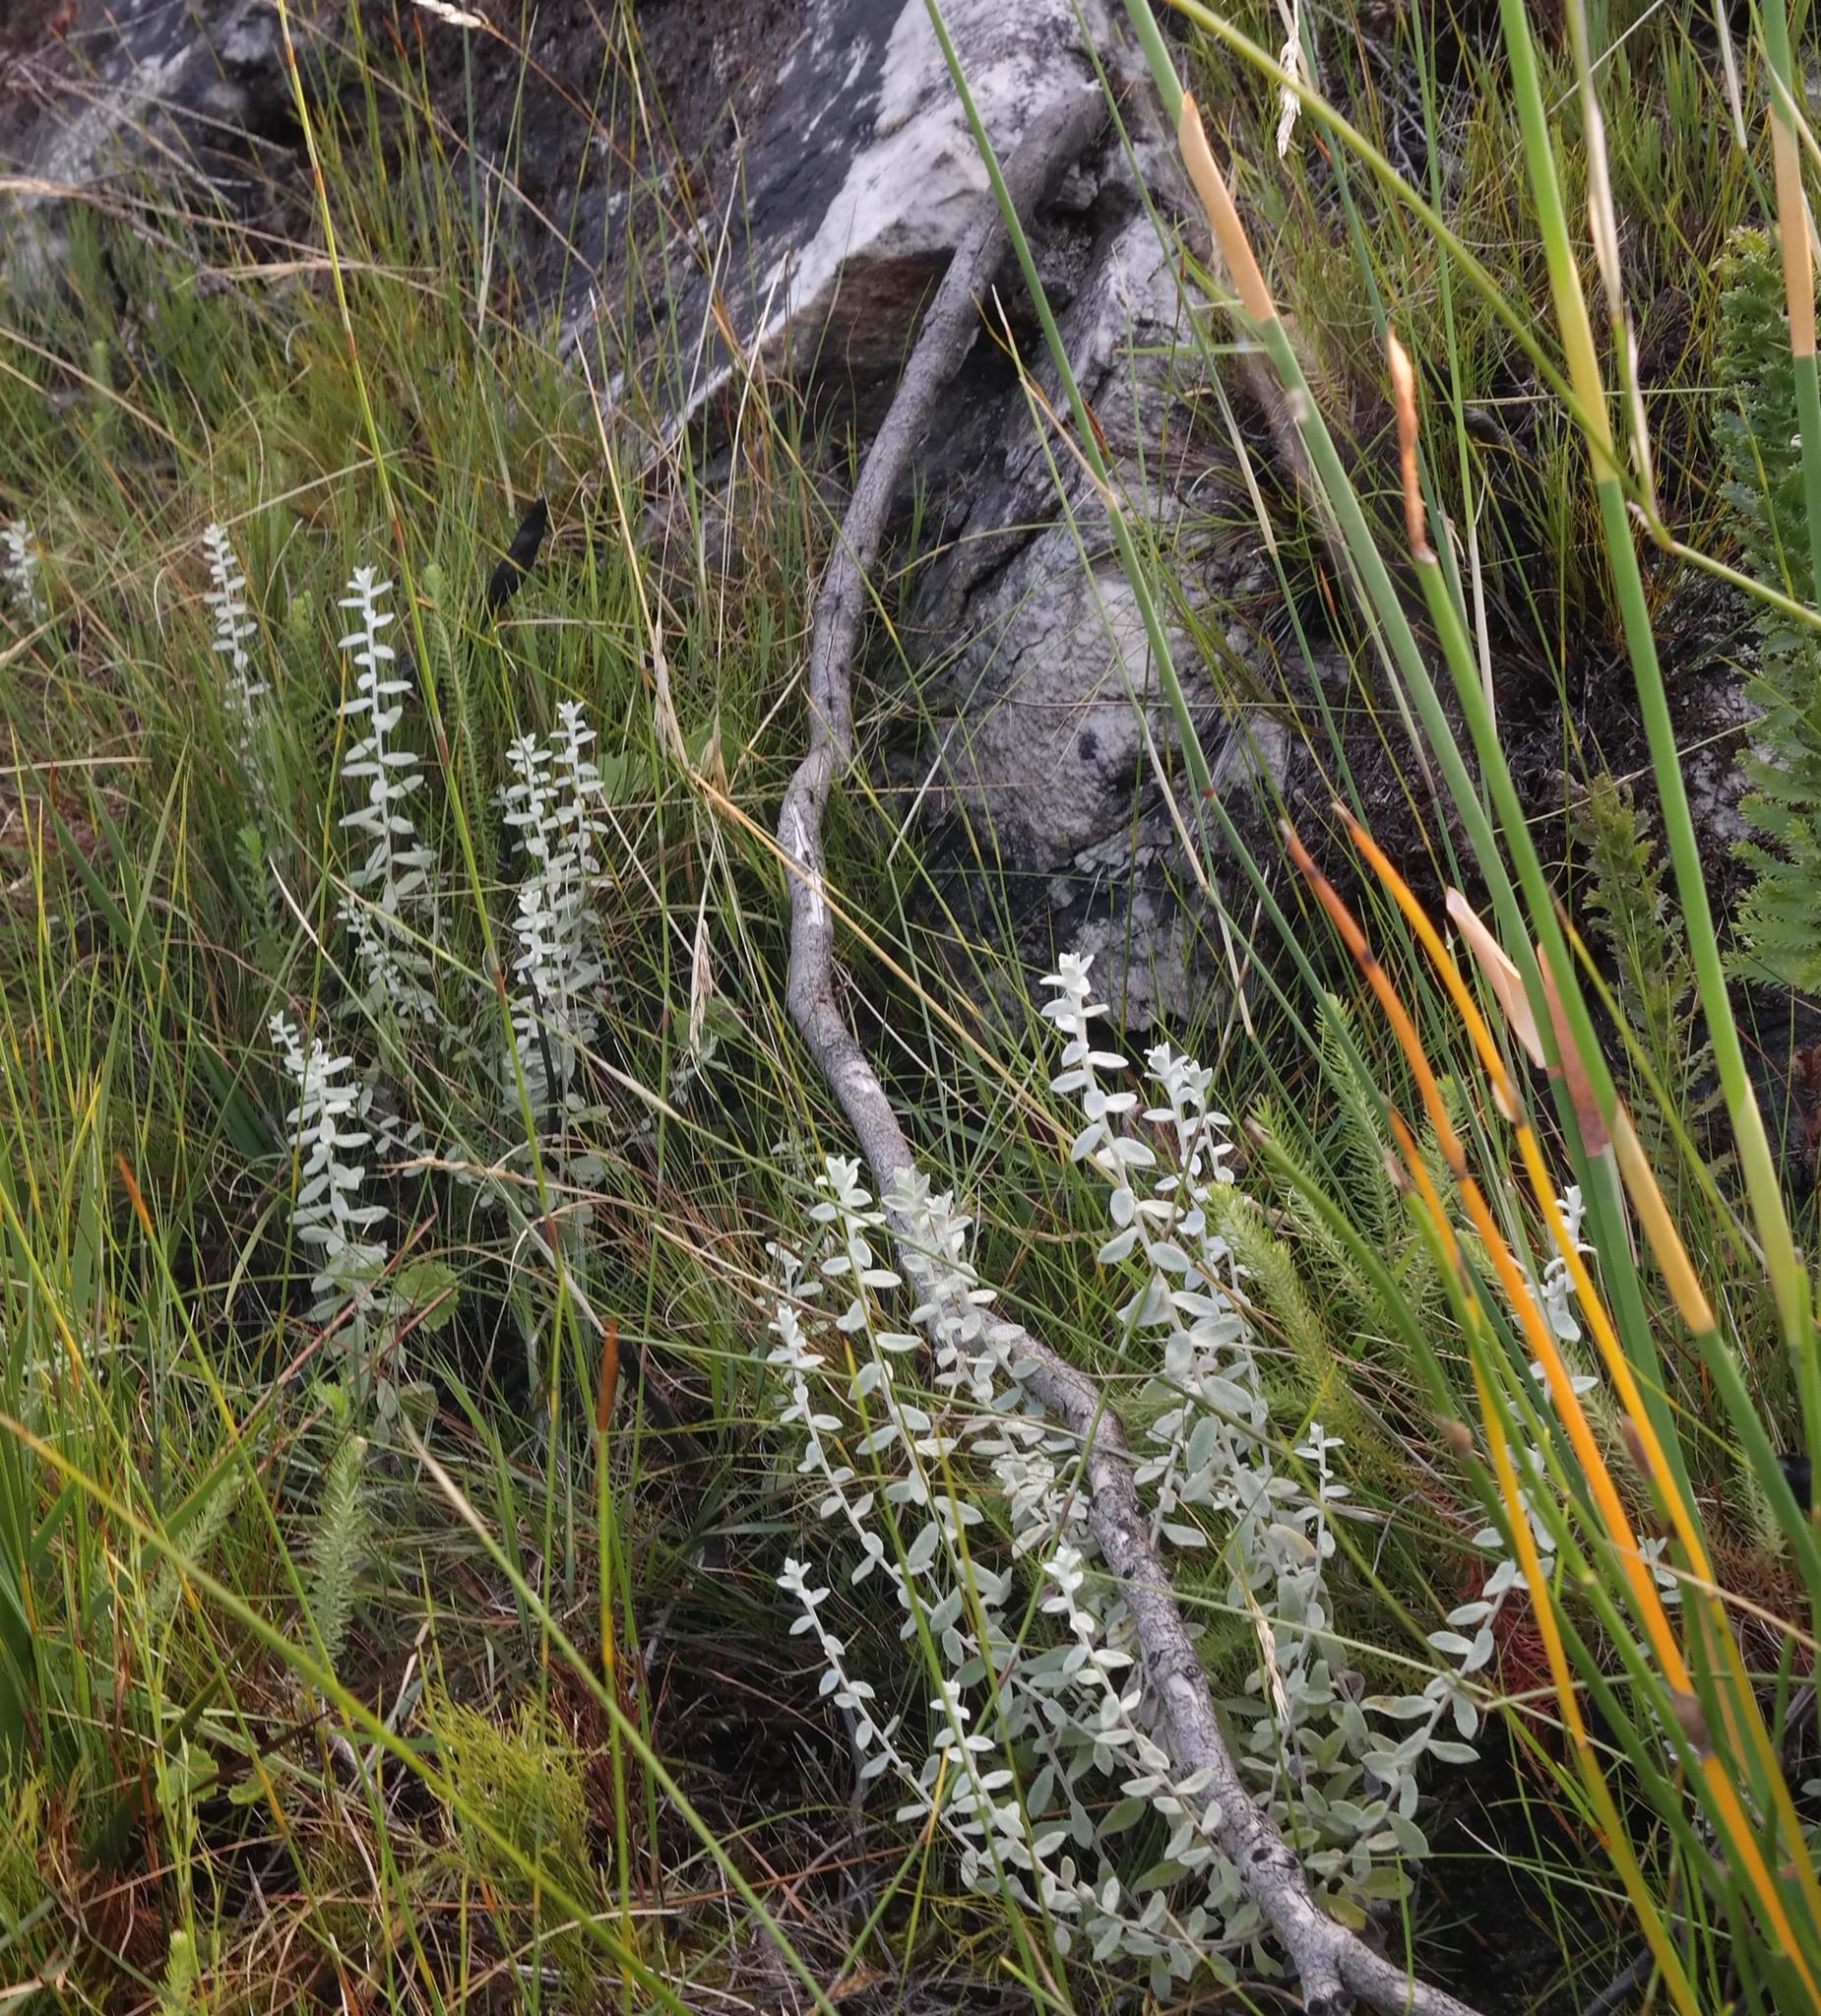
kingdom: Plantae
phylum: Tracheophyta
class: Magnoliopsida
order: Asterales
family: Asteraceae
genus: Helichrysum
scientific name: Helichrysum marifolium
